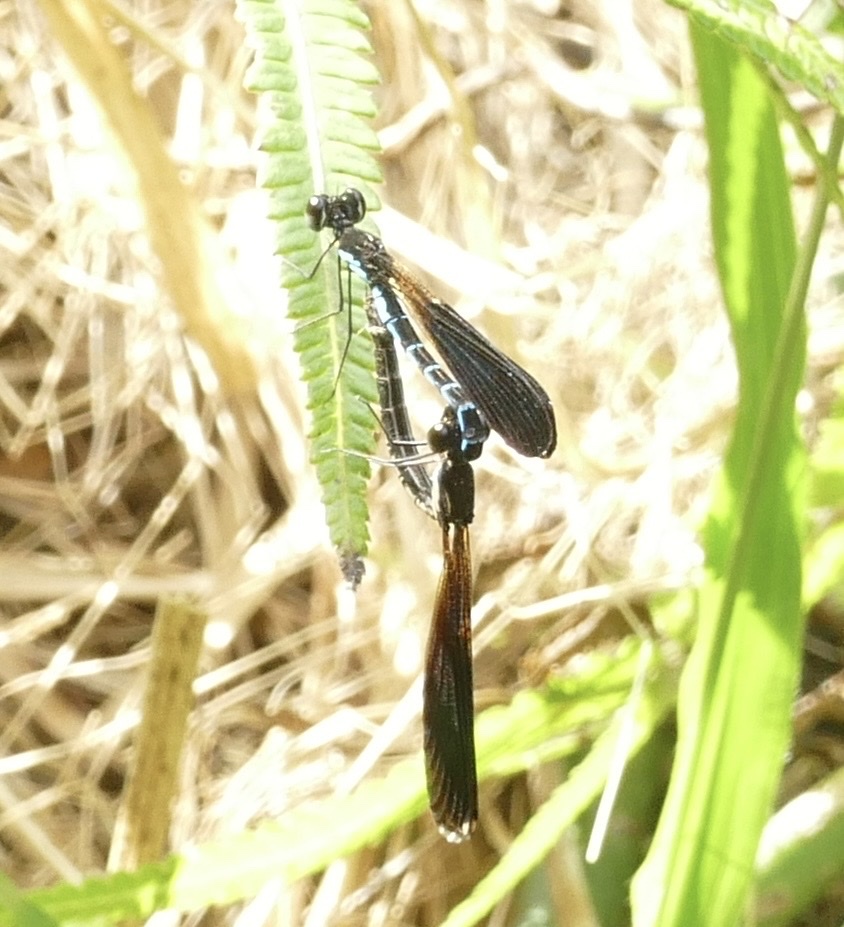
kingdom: Animalia
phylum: Arthropoda
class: Insecta
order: Odonata
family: Chlorocyphidae
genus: Rhinocypha
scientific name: Rhinocypha tincta
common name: Papuan jewel
